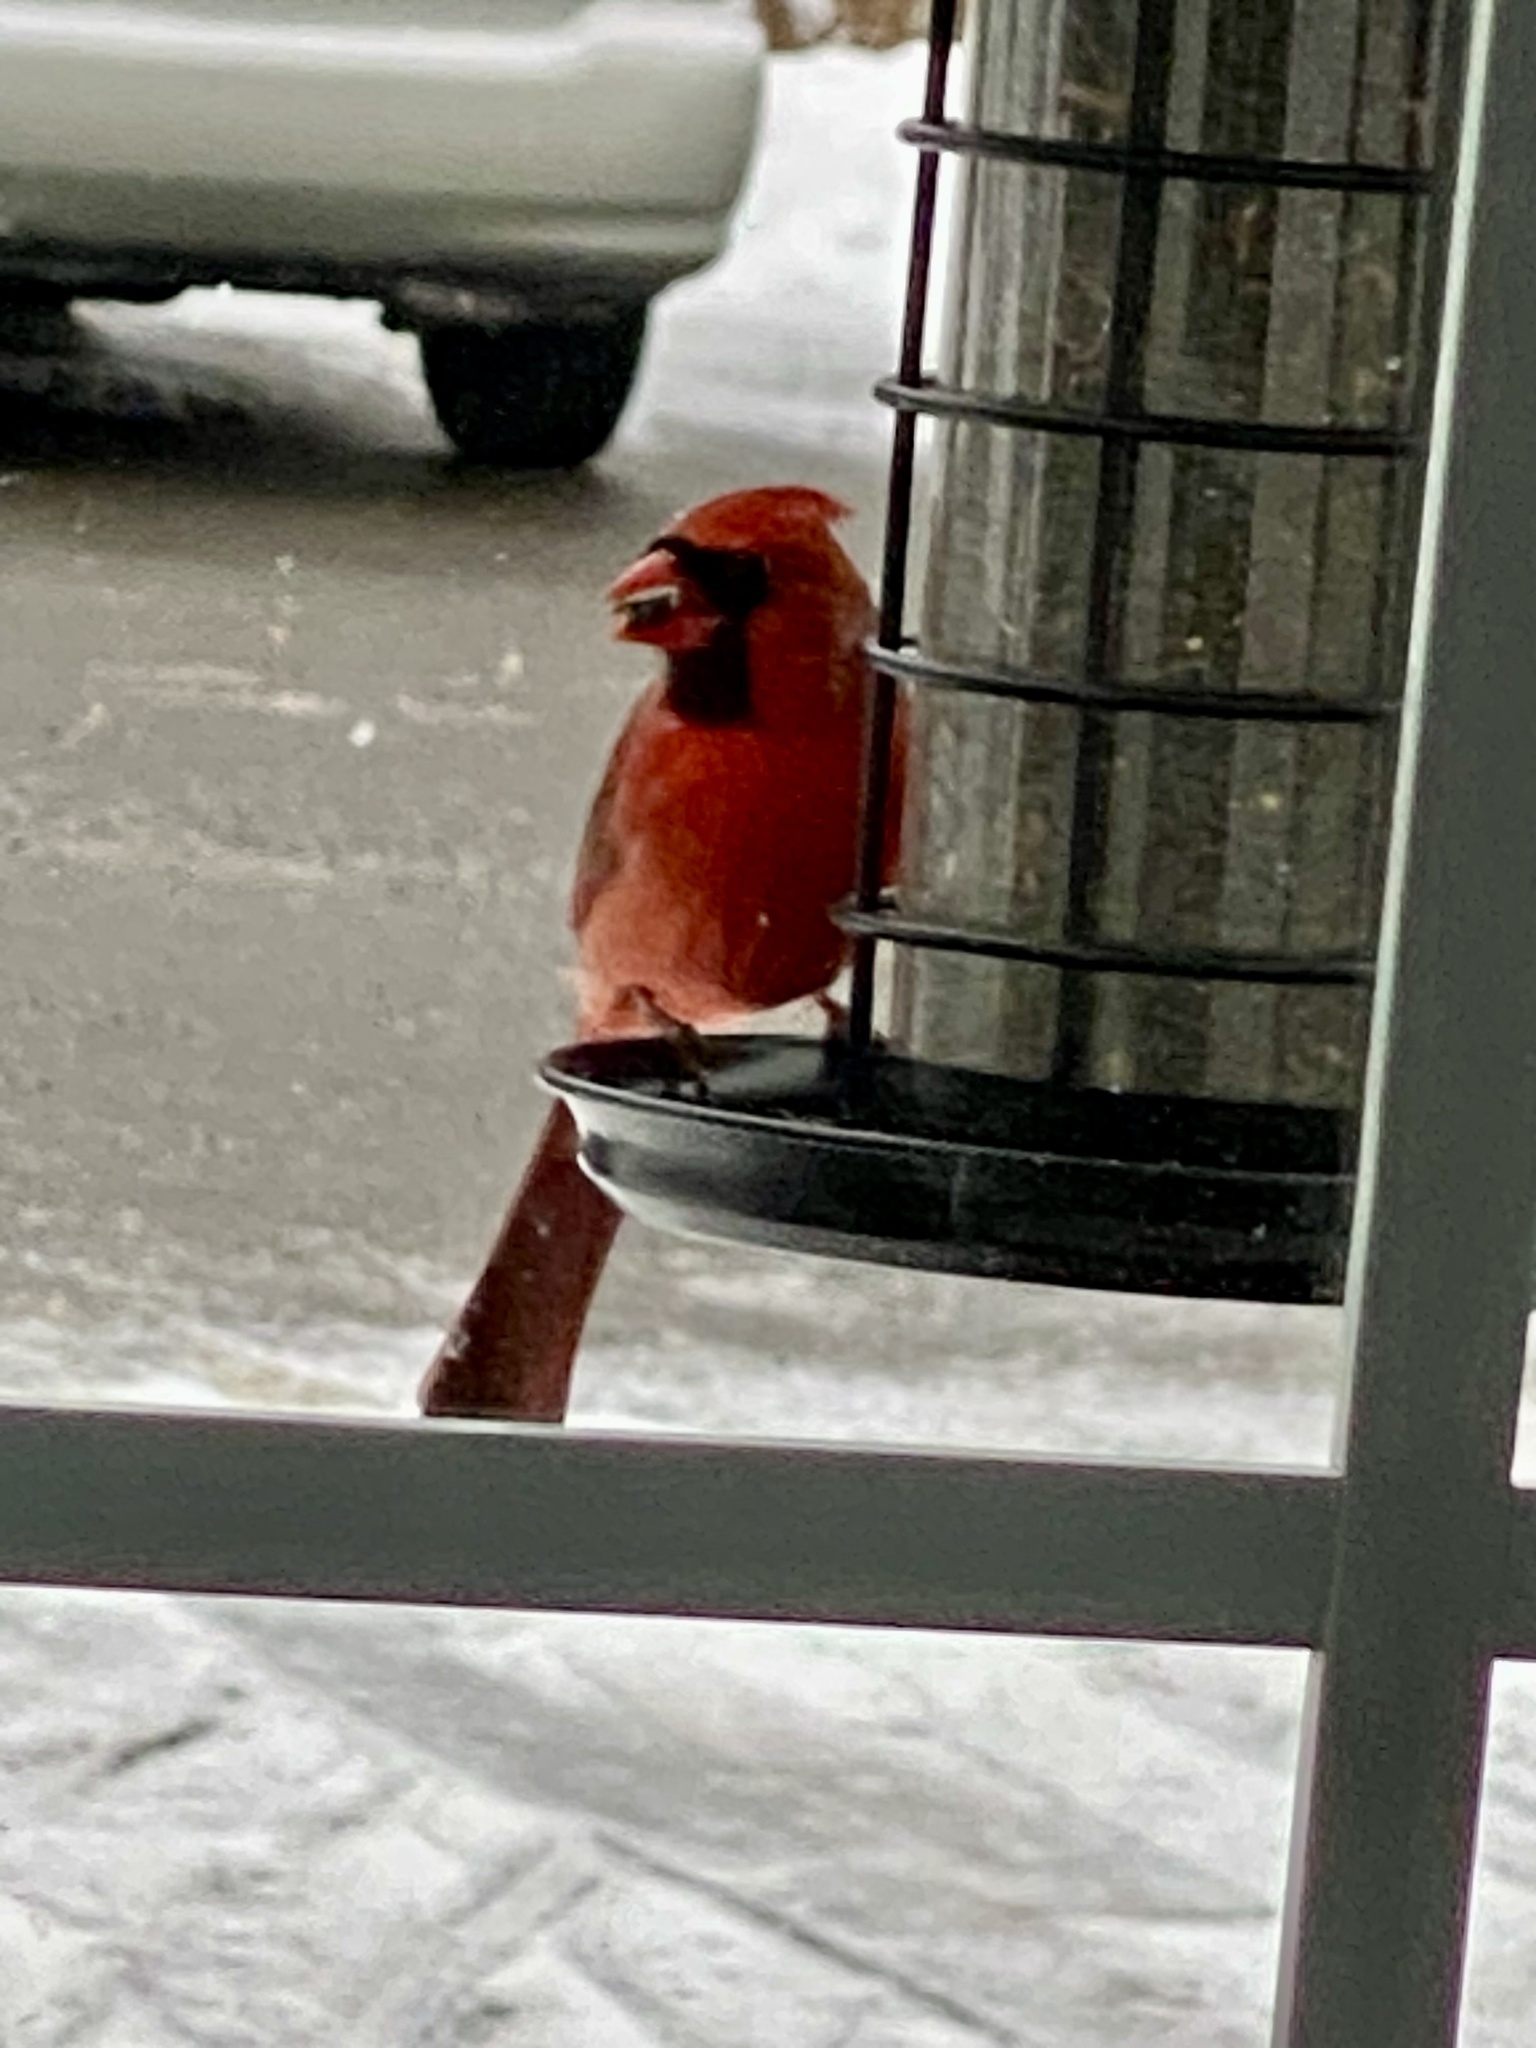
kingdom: Animalia
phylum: Chordata
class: Aves
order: Passeriformes
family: Cardinalidae
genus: Cardinalis
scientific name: Cardinalis cardinalis
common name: Northern cardinal
